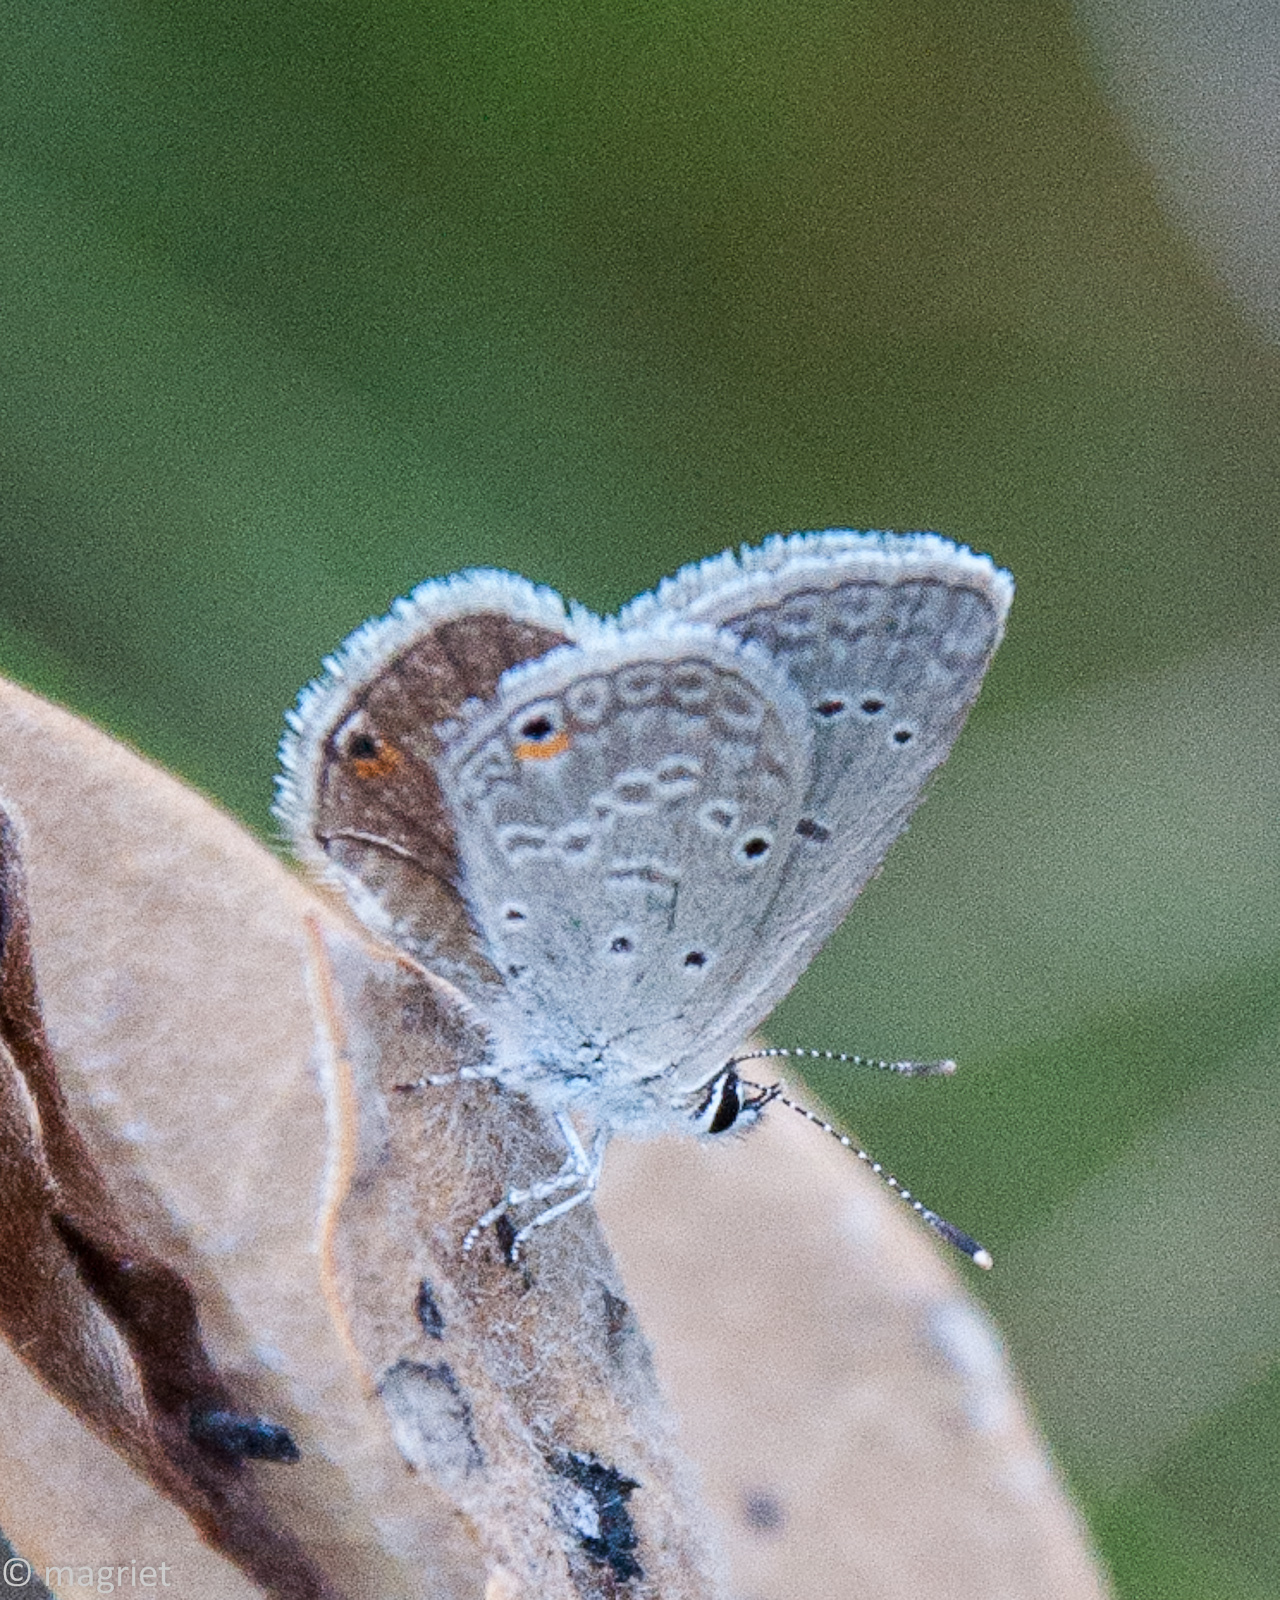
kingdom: Animalia
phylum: Arthropoda
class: Insecta
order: Lepidoptera
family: Lycaenidae
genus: Eicochrysops
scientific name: Eicochrysops messapus
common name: Cupreous blue
